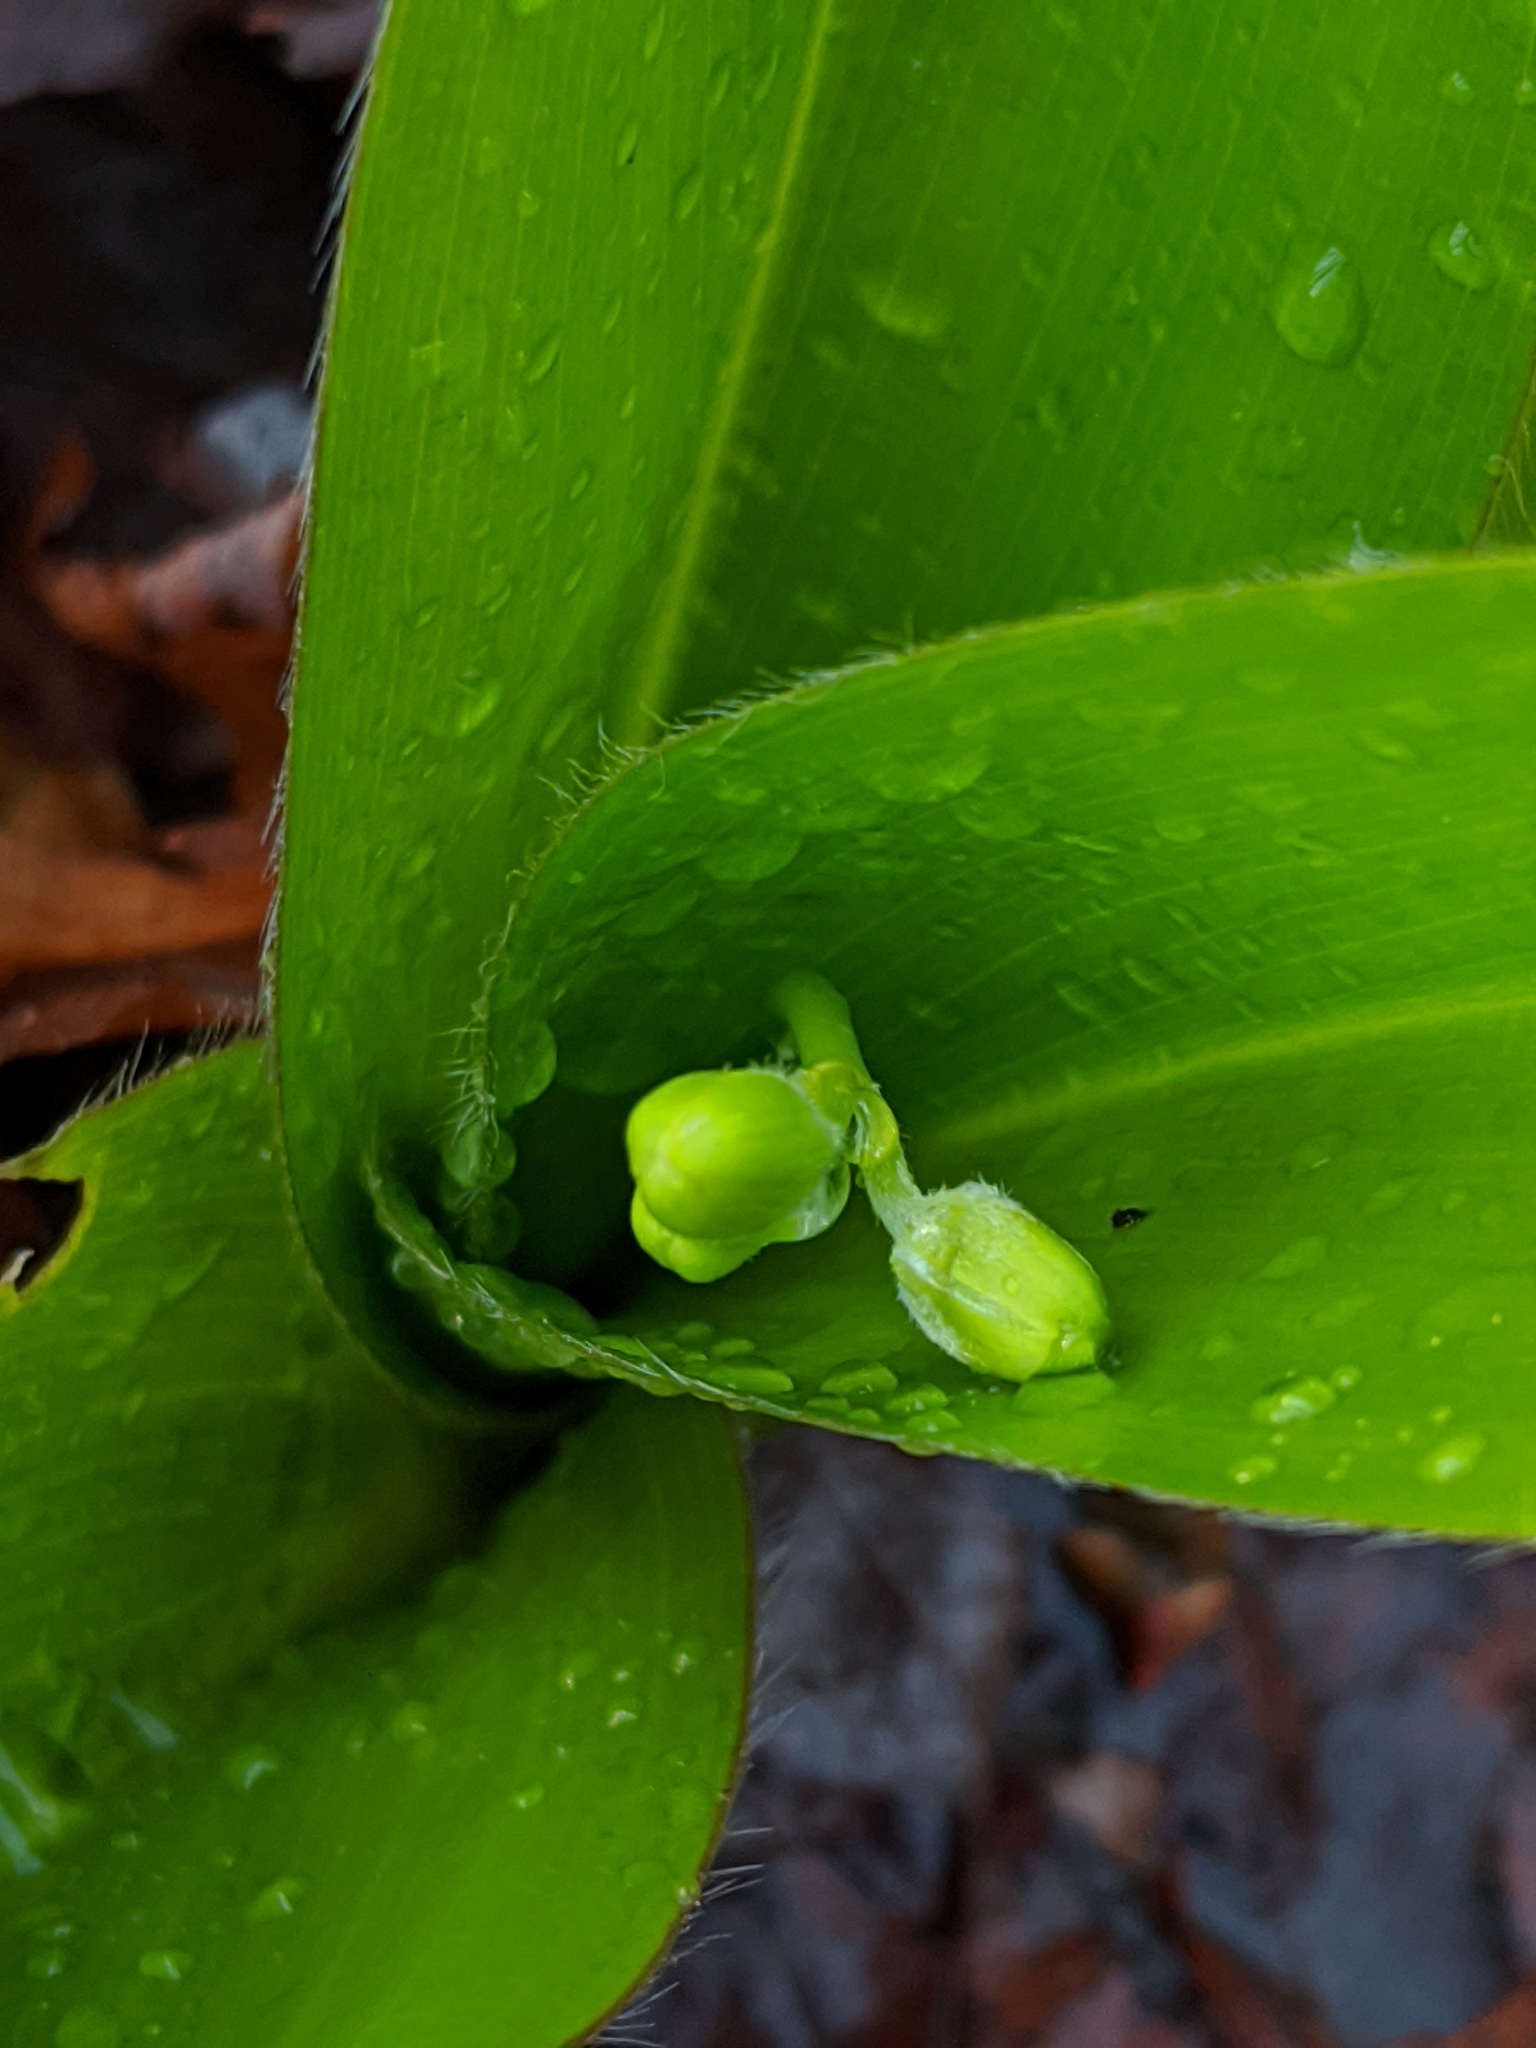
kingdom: Plantae
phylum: Tracheophyta
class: Liliopsida
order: Liliales
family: Liliaceae
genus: Clintonia
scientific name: Clintonia borealis
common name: Yellow clintonia
